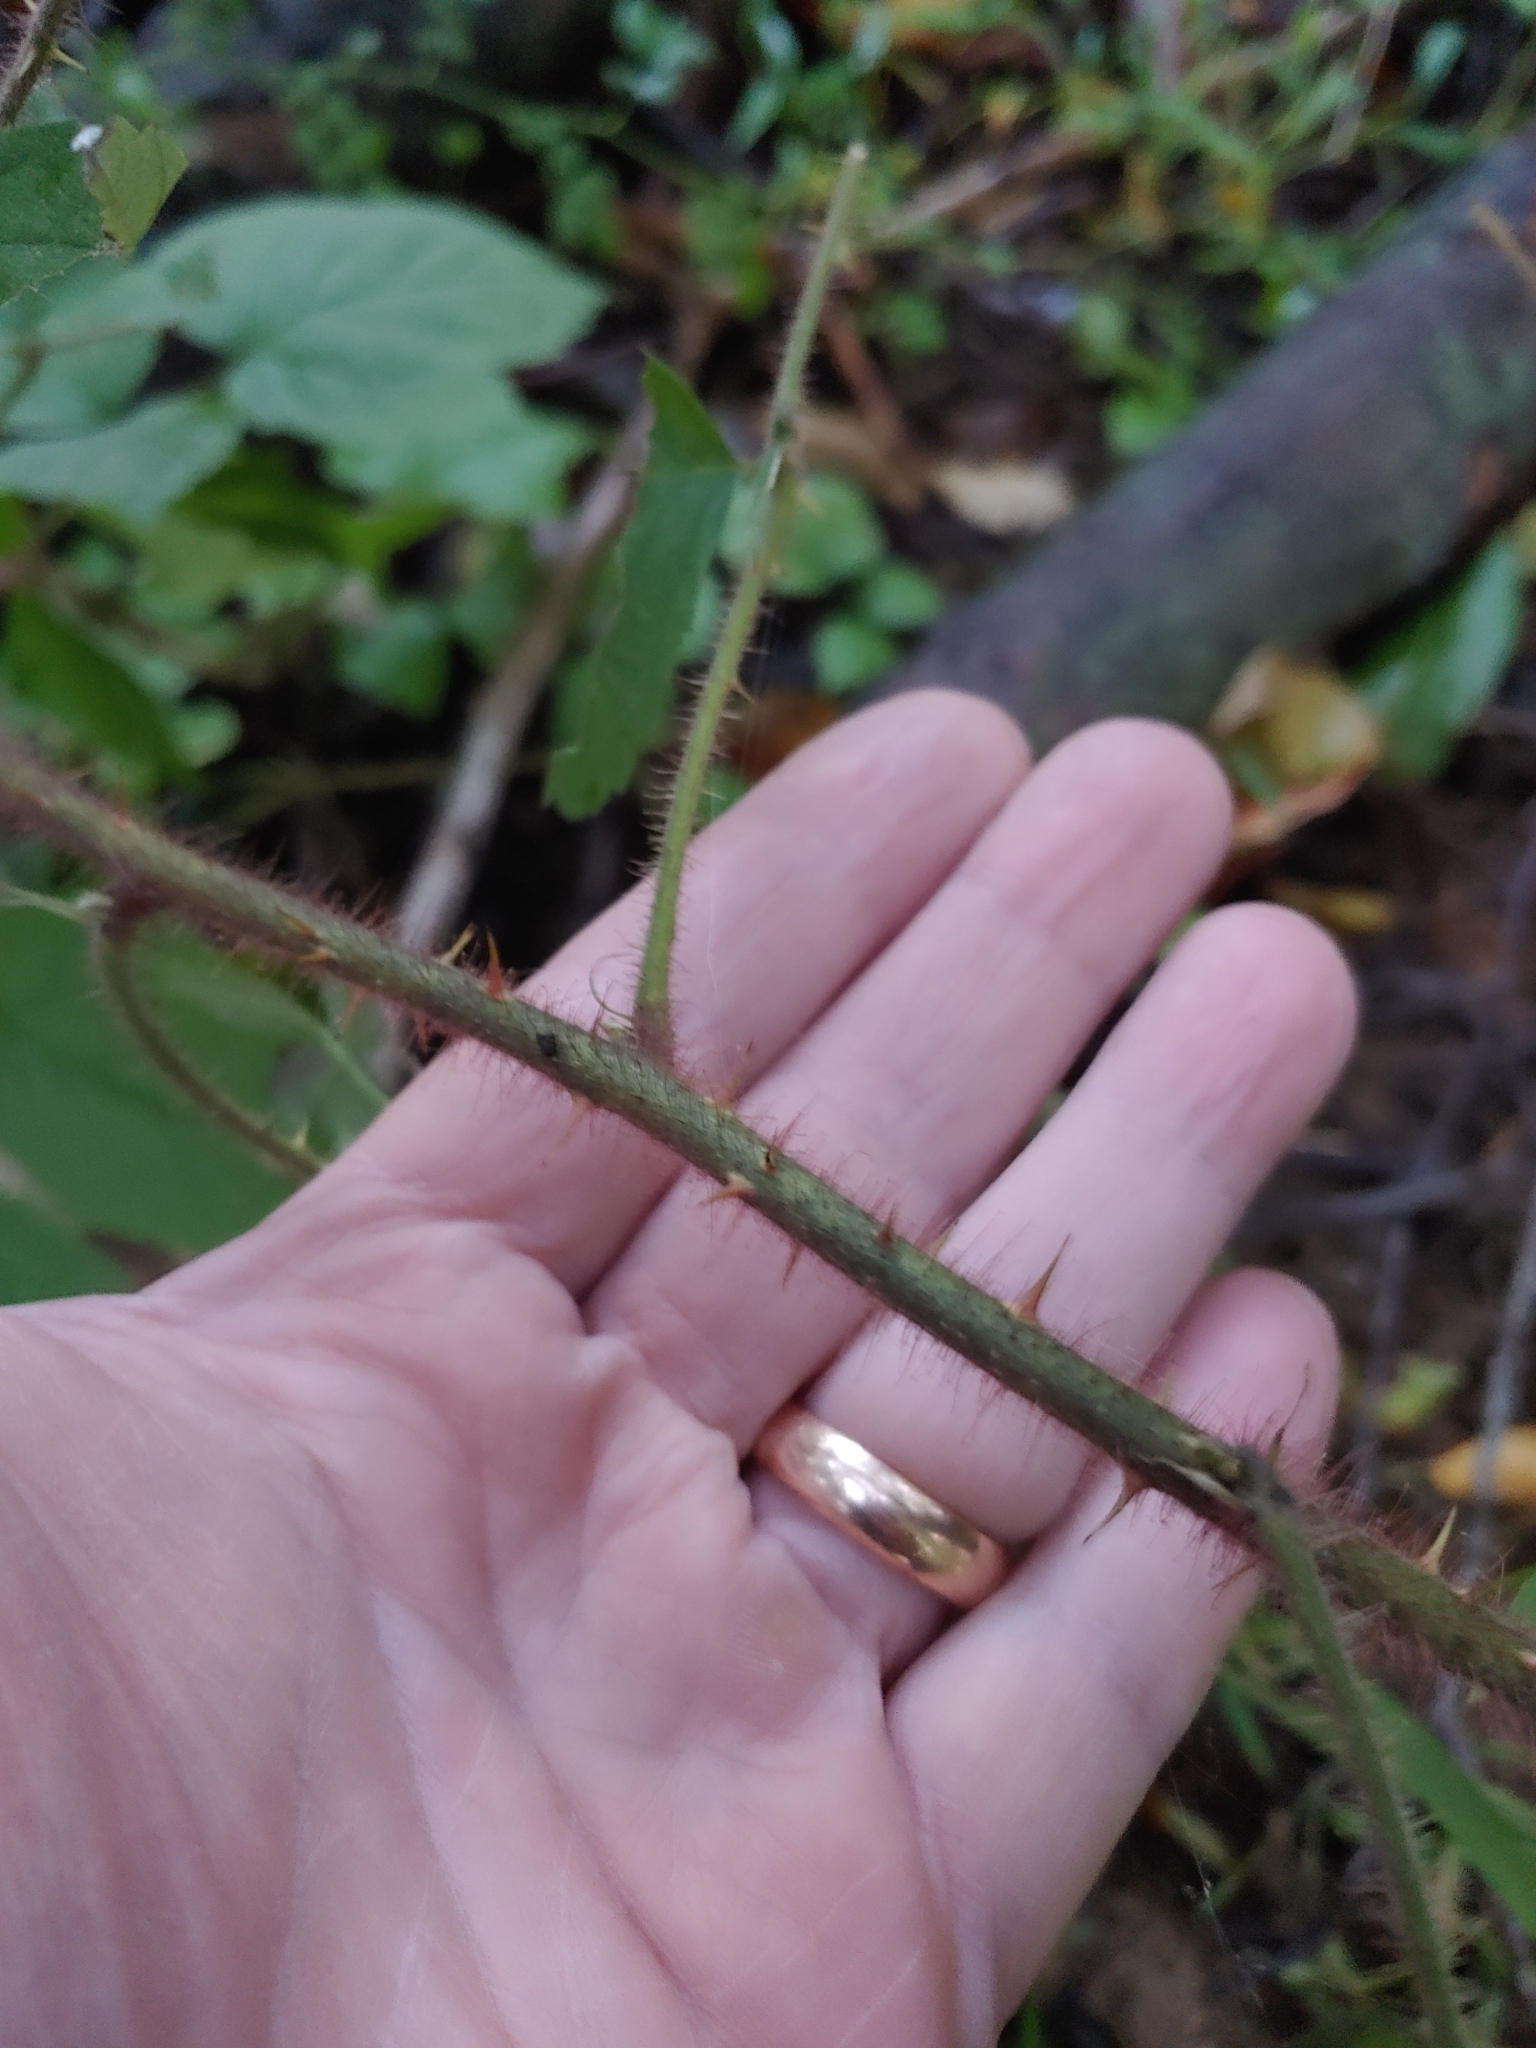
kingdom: Plantae
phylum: Tracheophyta
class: Magnoliopsida
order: Rosales
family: Rosaceae
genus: Rubus
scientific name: Rubus phoenicolasius
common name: Japanese wineberry
